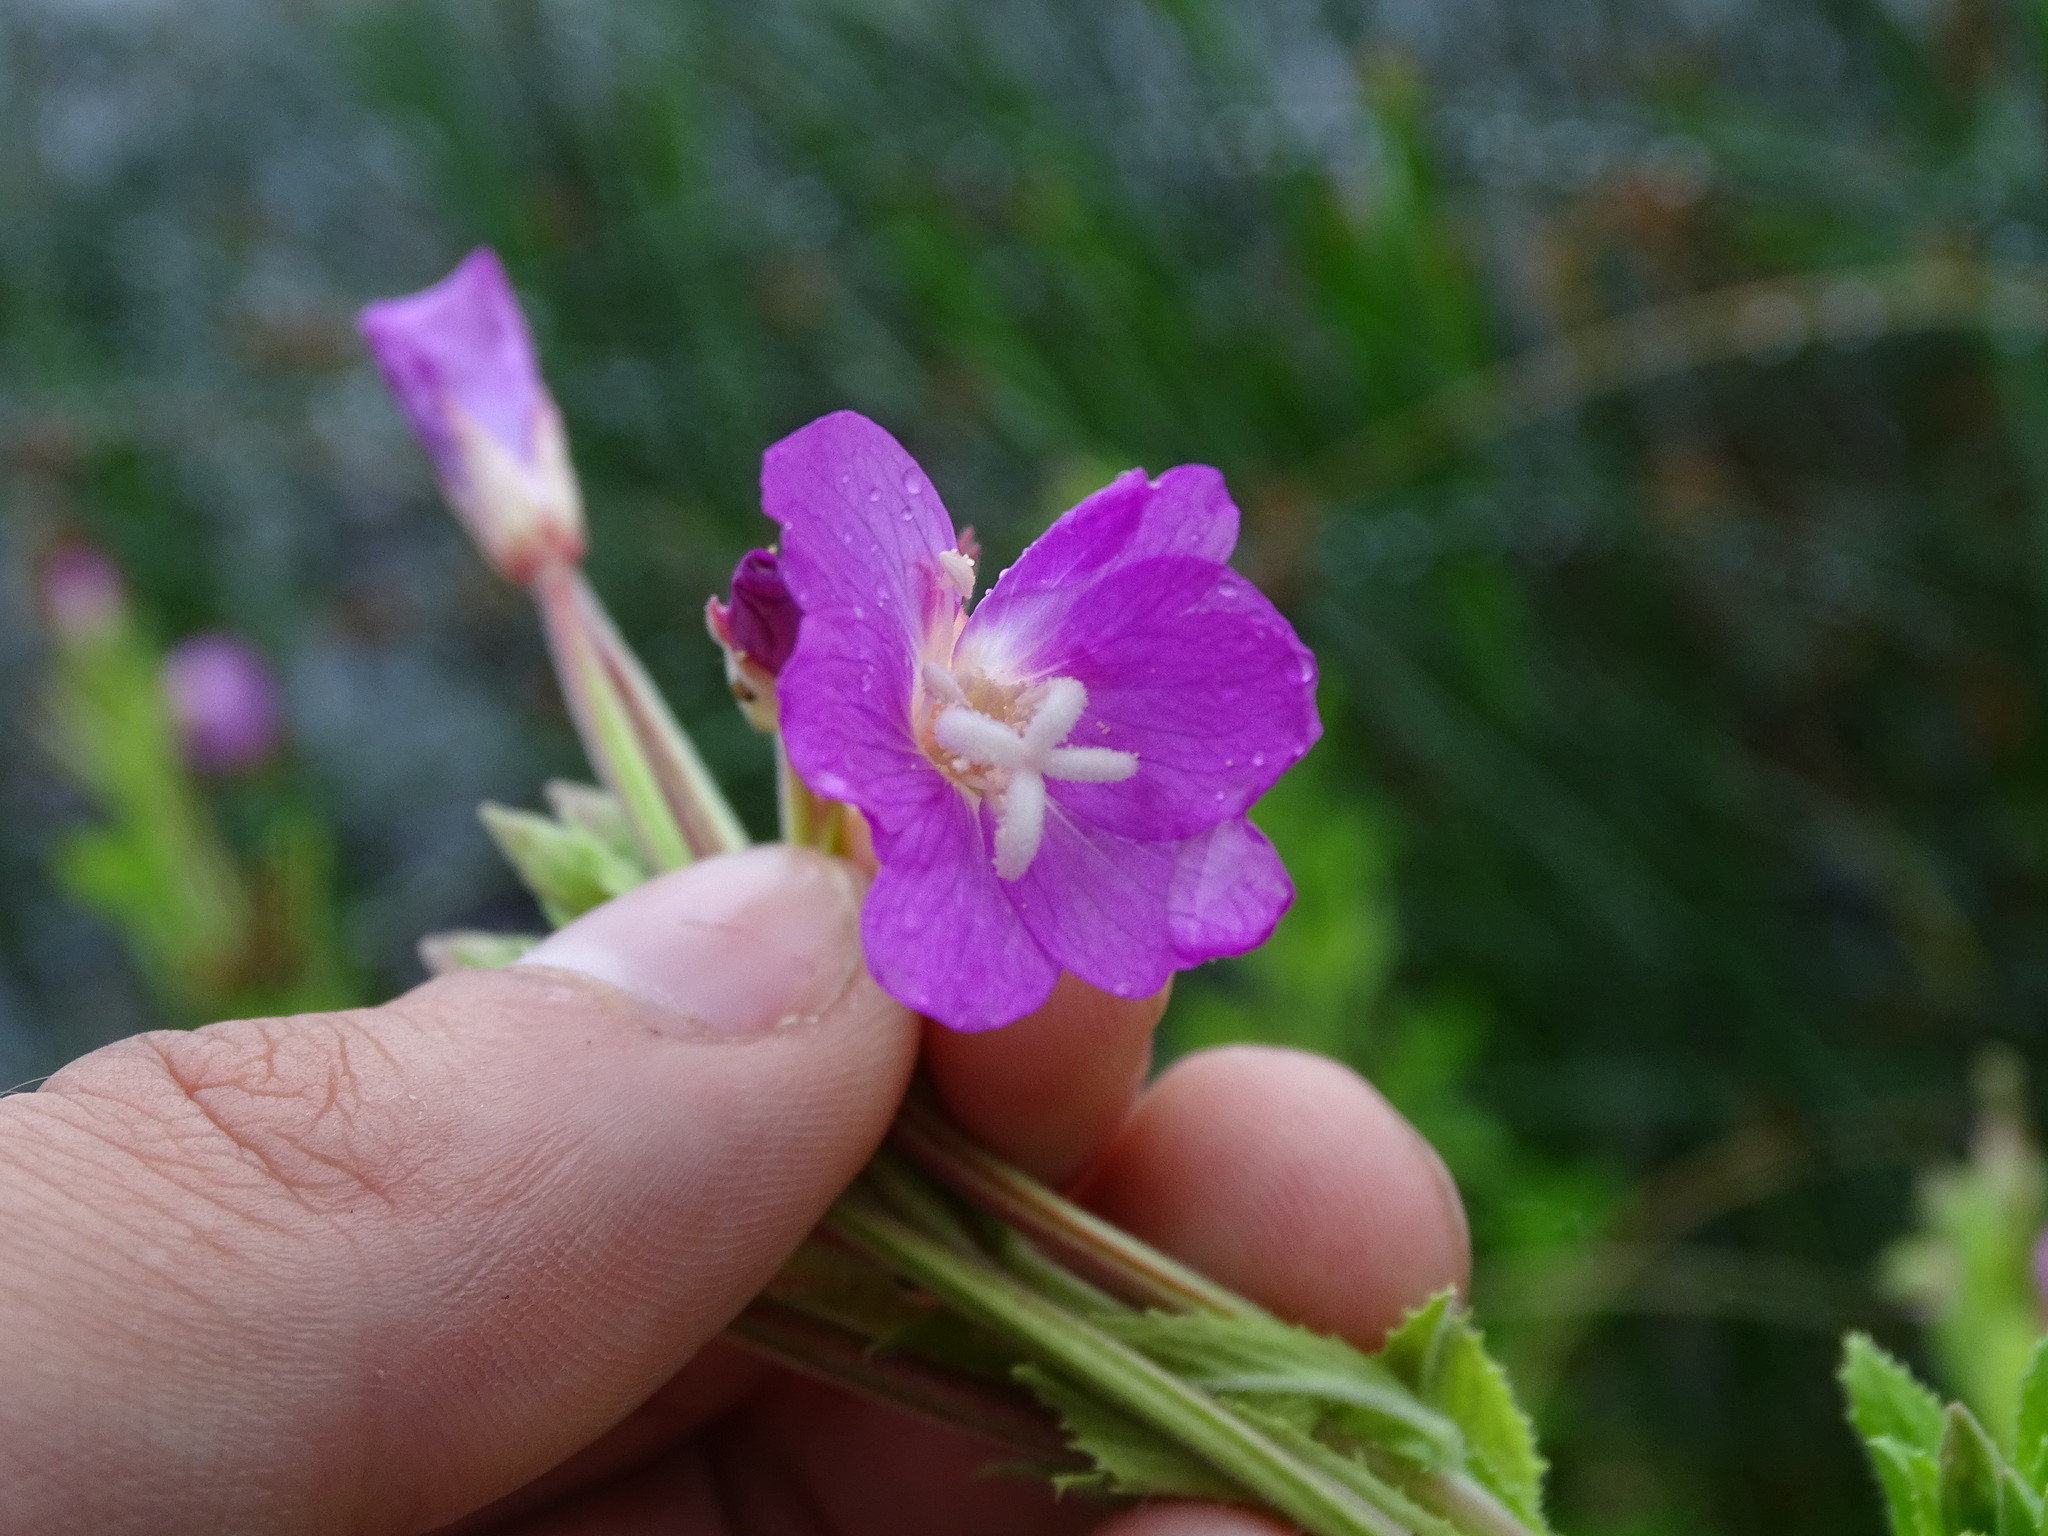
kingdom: Plantae
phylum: Tracheophyta
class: Magnoliopsida
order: Myrtales
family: Onagraceae
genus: Epilobium
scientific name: Epilobium hirsutum
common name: Great willowherb
